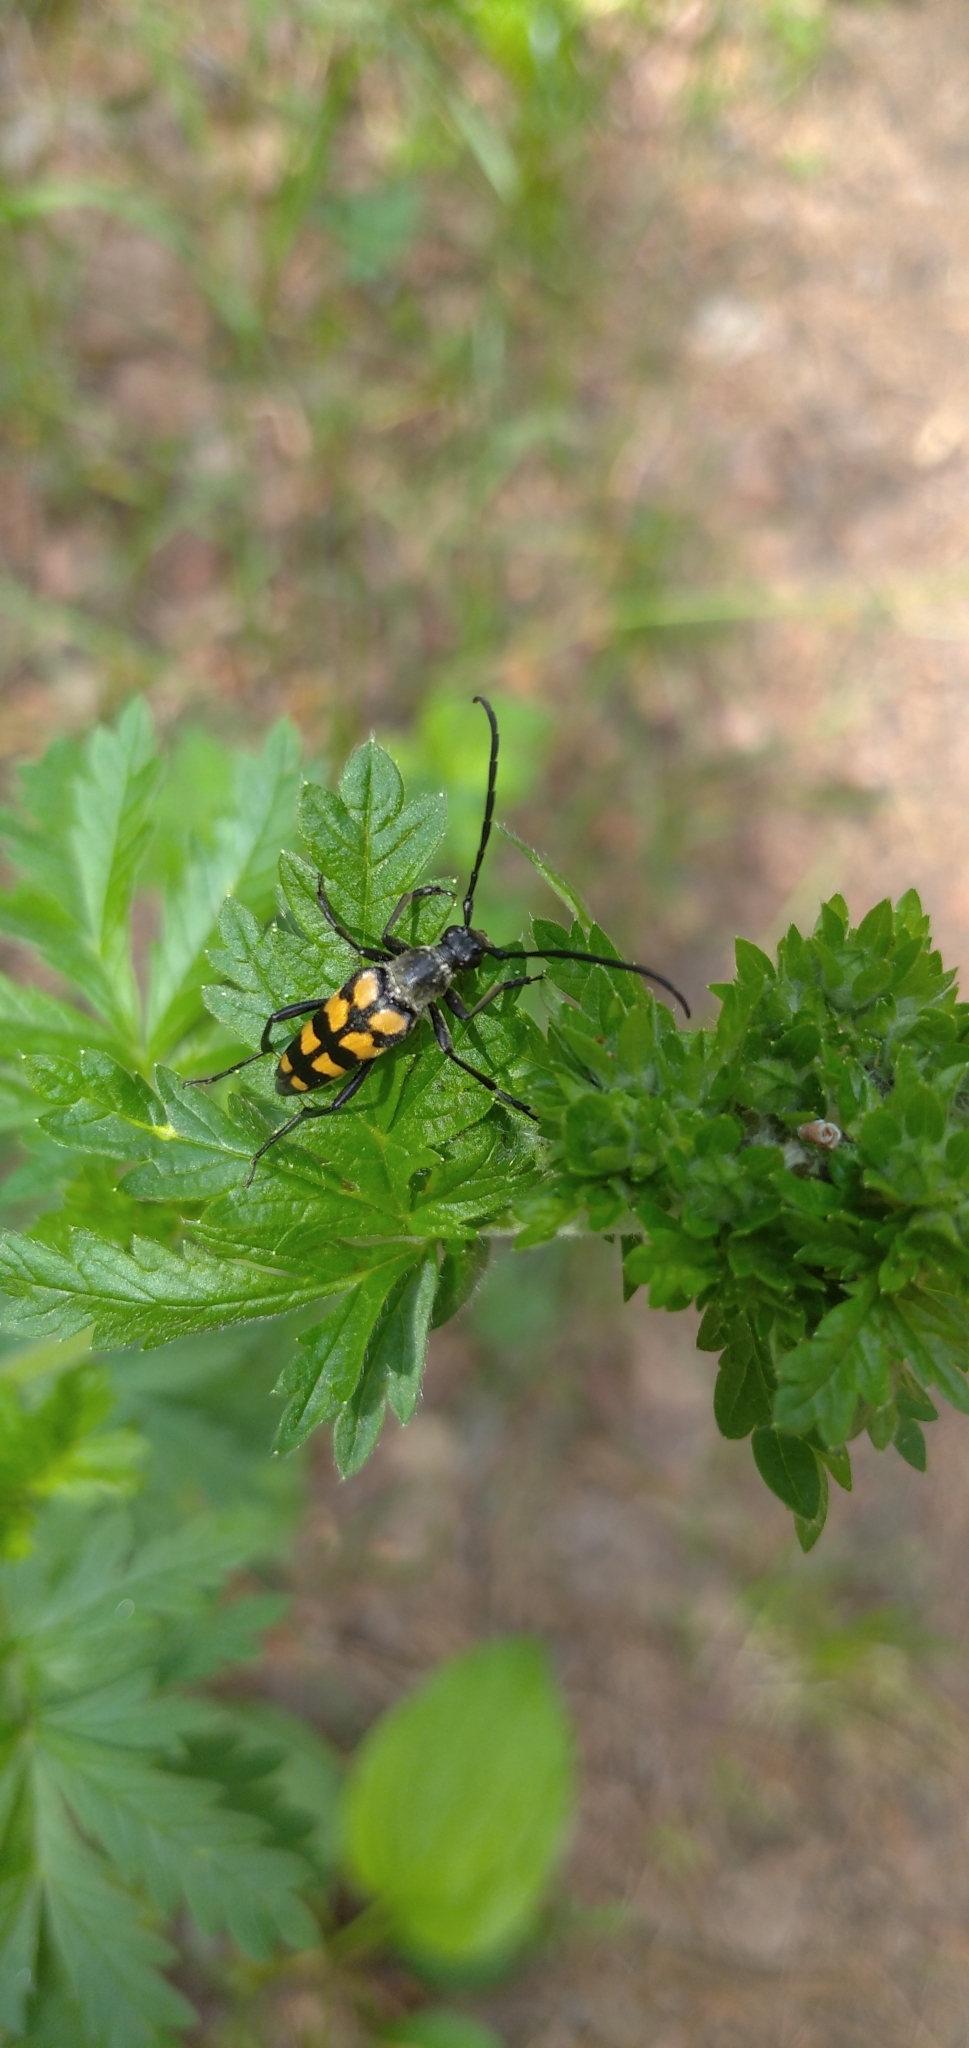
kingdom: Animalia
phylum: Arthropoda
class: Insecta
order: Coleoptera
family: Cerambycidae
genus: Leptura
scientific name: Leptura quadrifasciata
